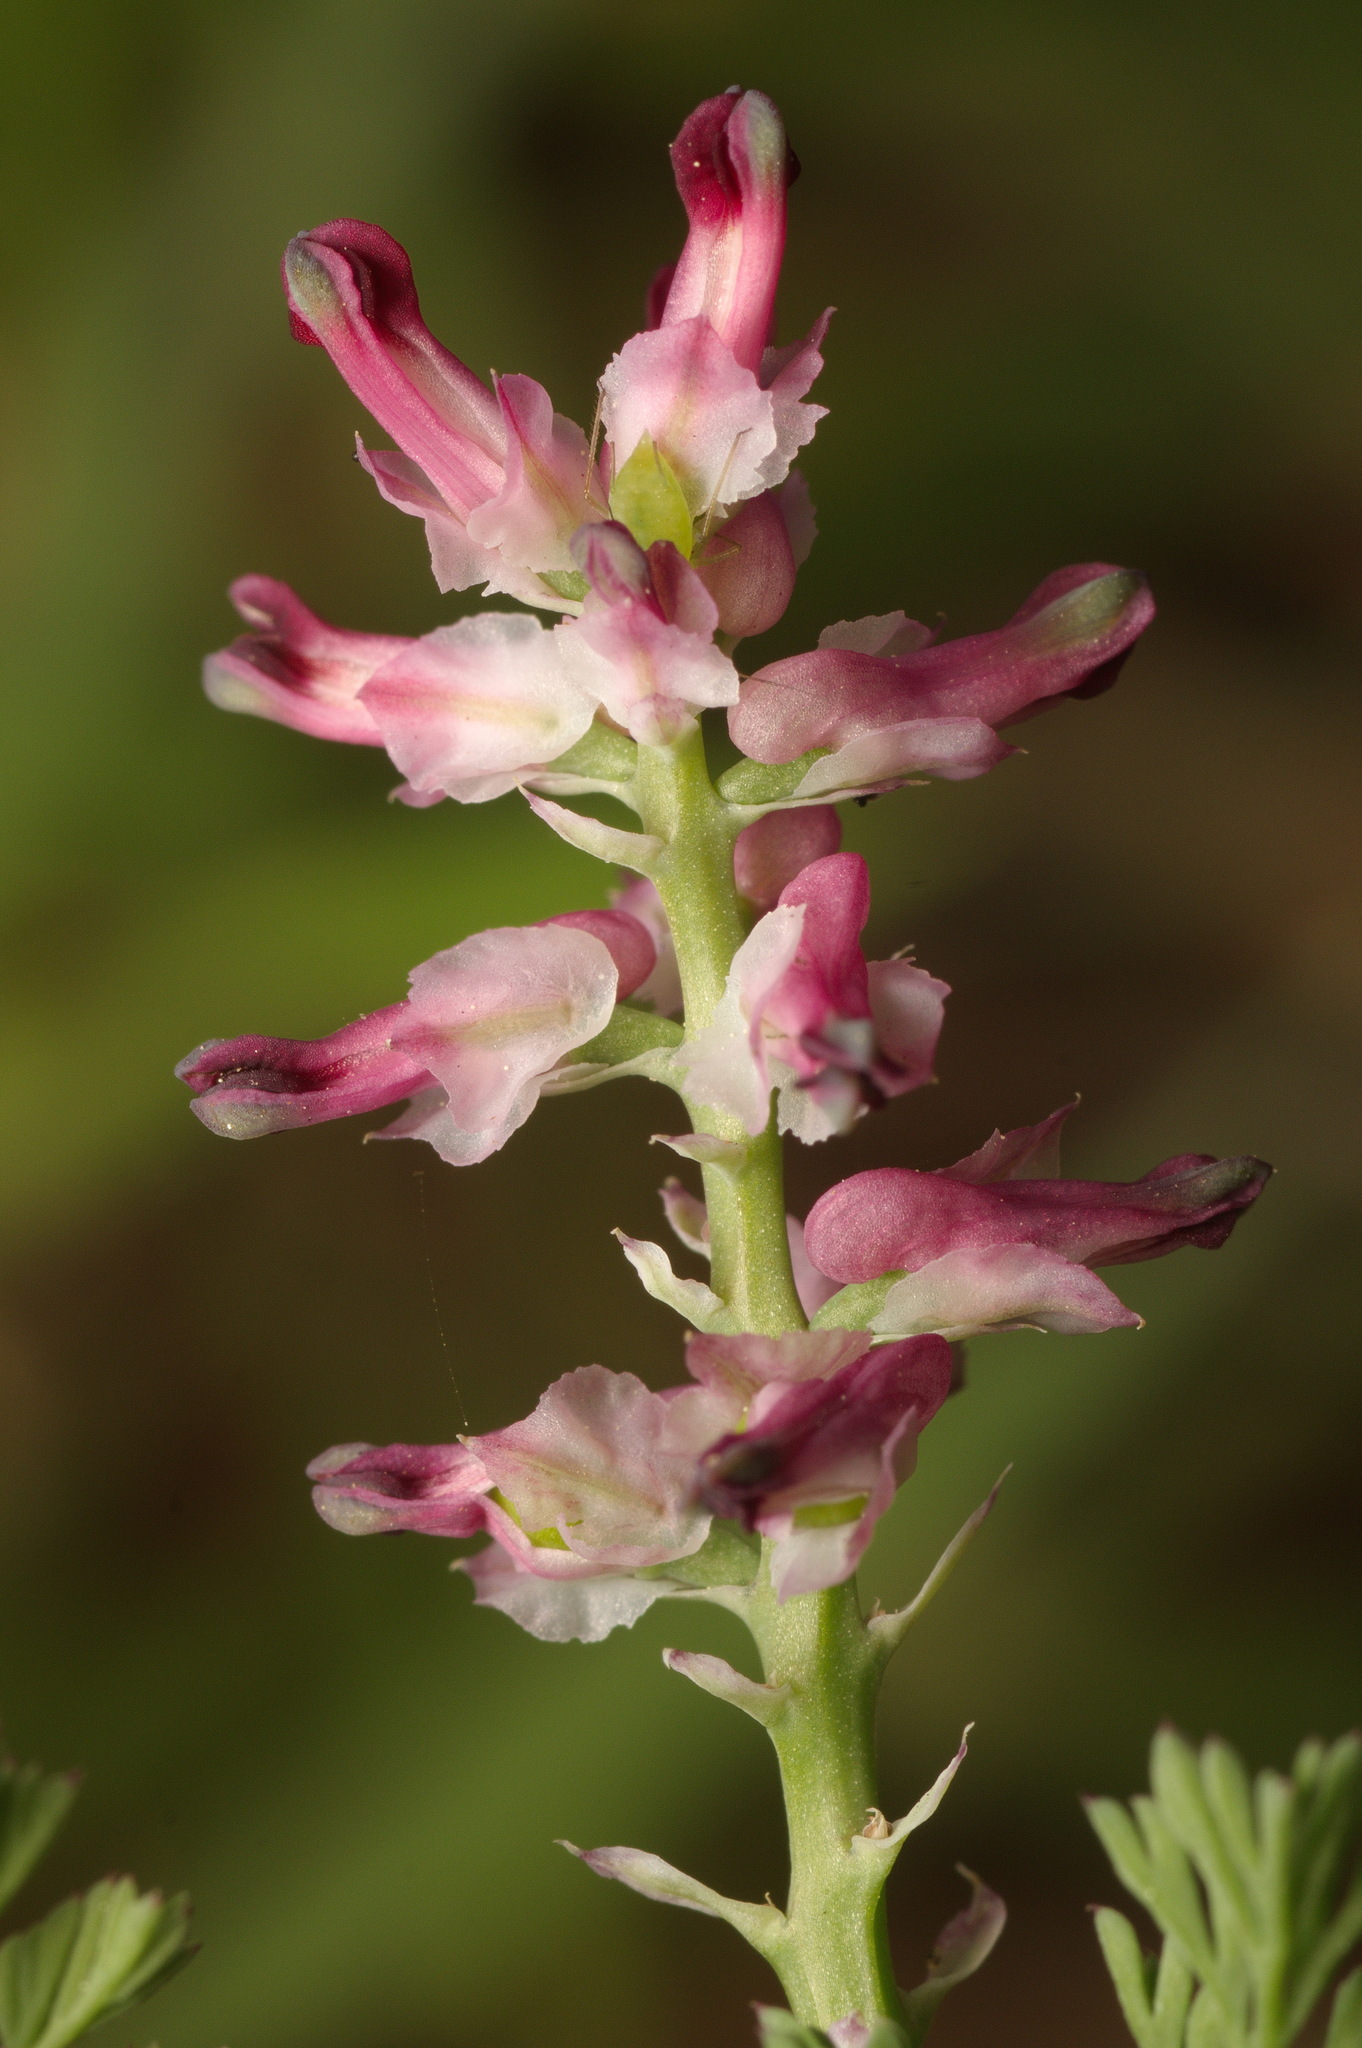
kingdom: Plantae
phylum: Tracheophyta
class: Magnoliopsida
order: Ranunculales
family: Papaveraceae
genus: Fumaria
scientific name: Fumaria densiflora
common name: Dense-flowered fumitory
